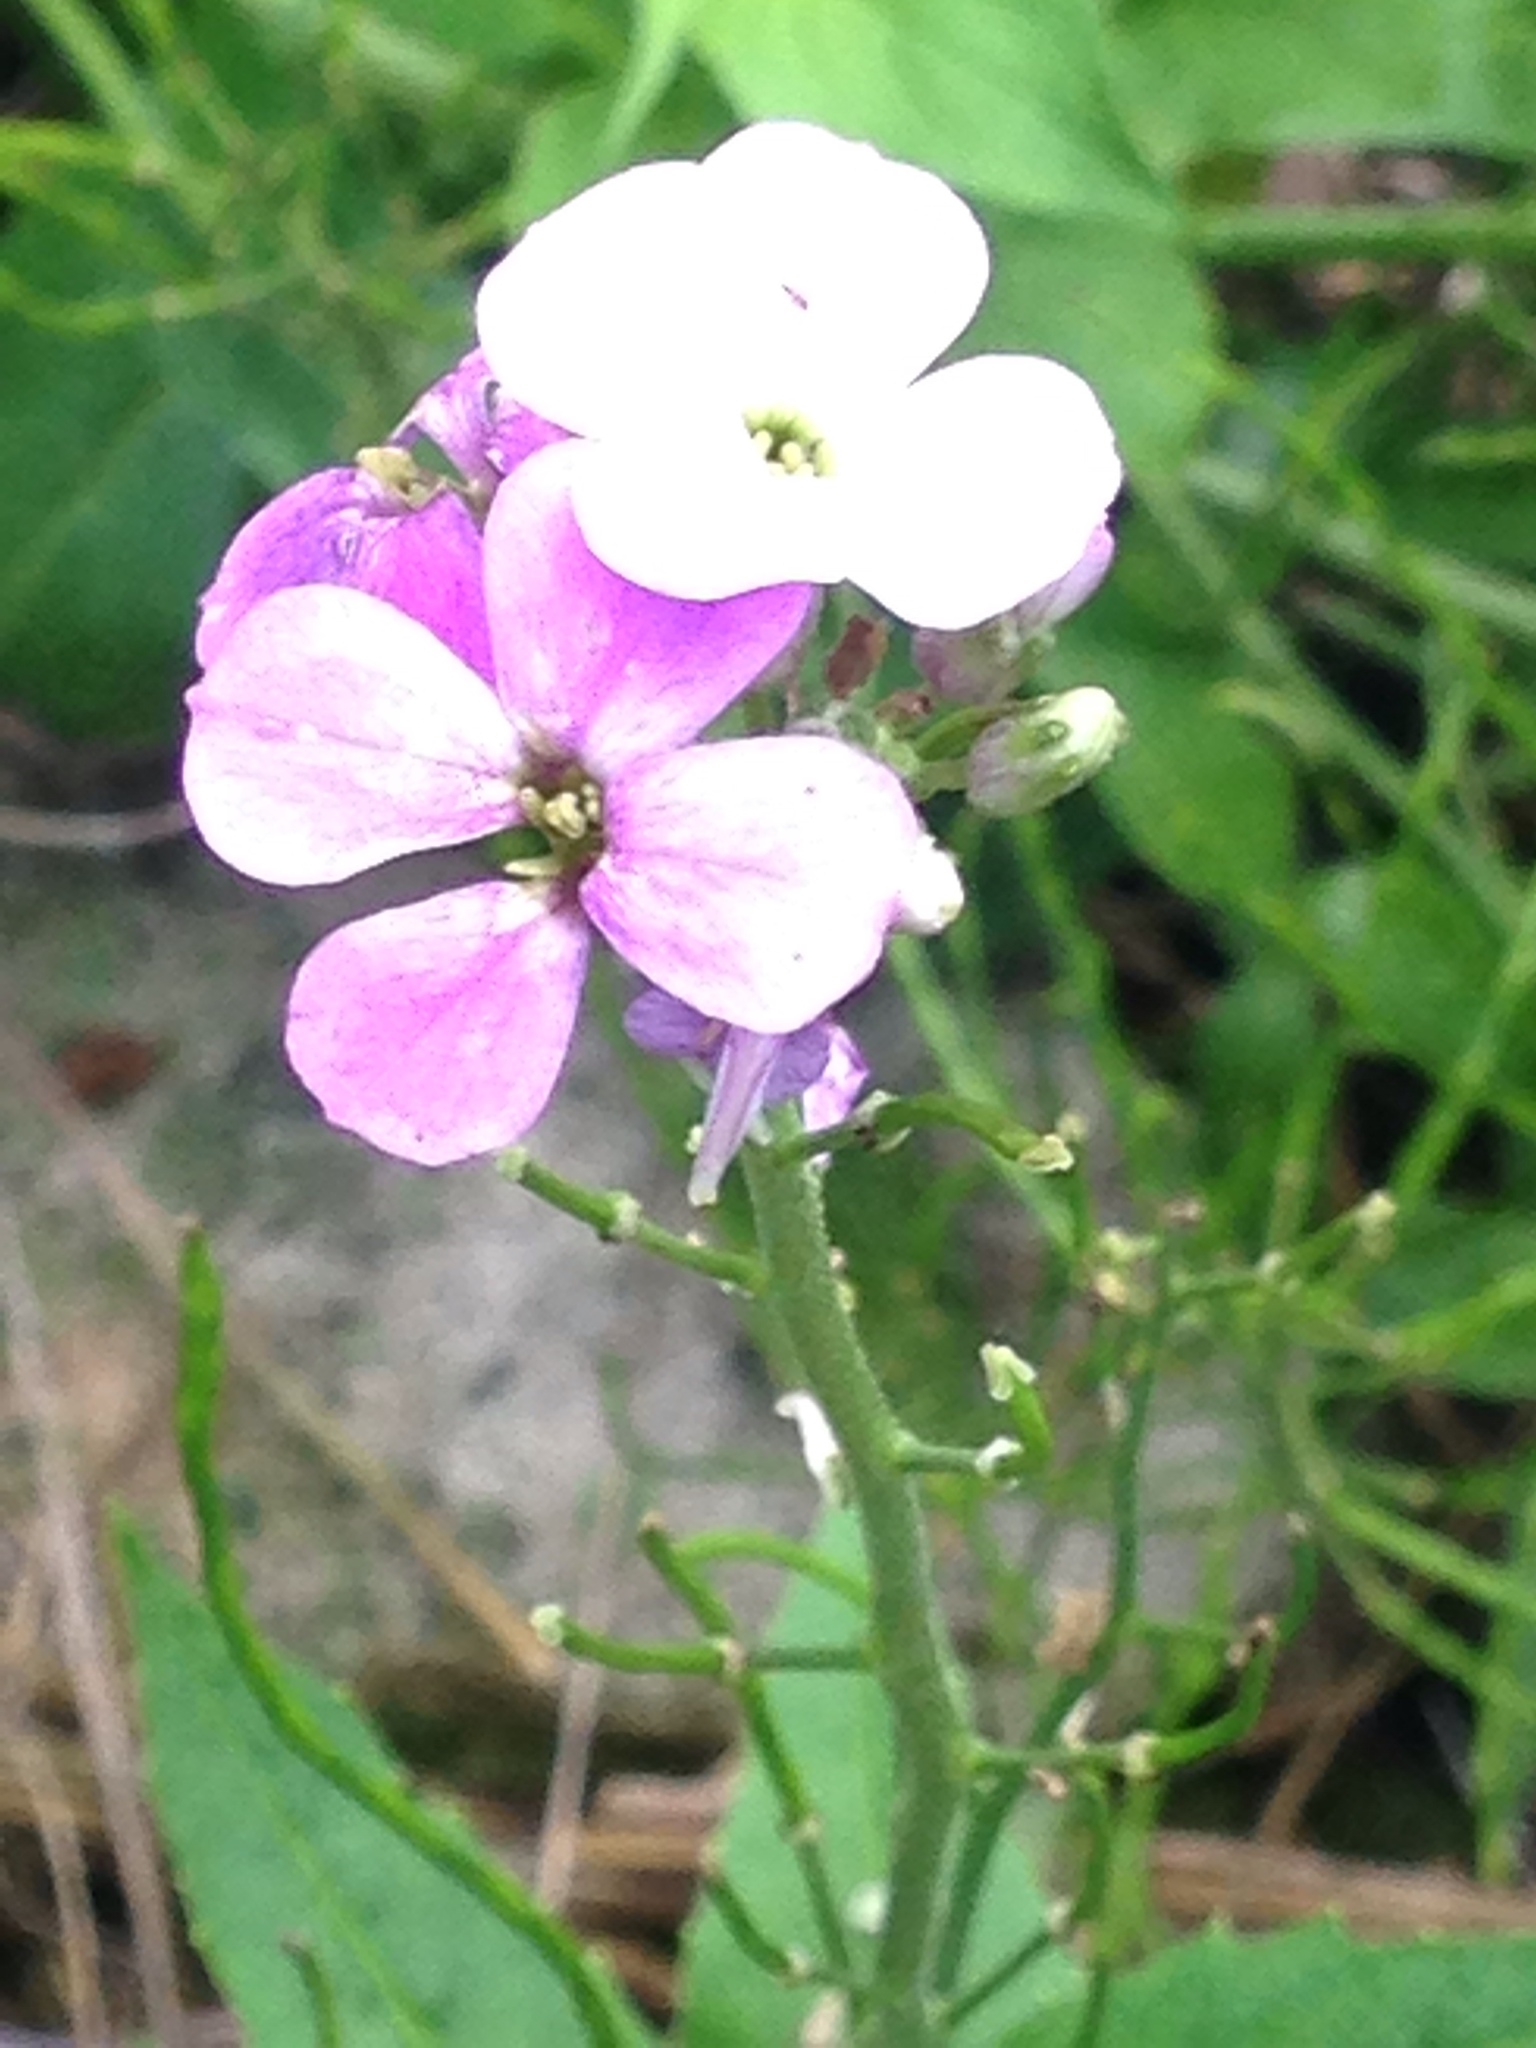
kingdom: Plantae
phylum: Tracheophyta
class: Magnoliopsida
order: Brassicales
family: Brassicaceae
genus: Hesperis
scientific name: Hesperis matronalis
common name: Dame's-violet
